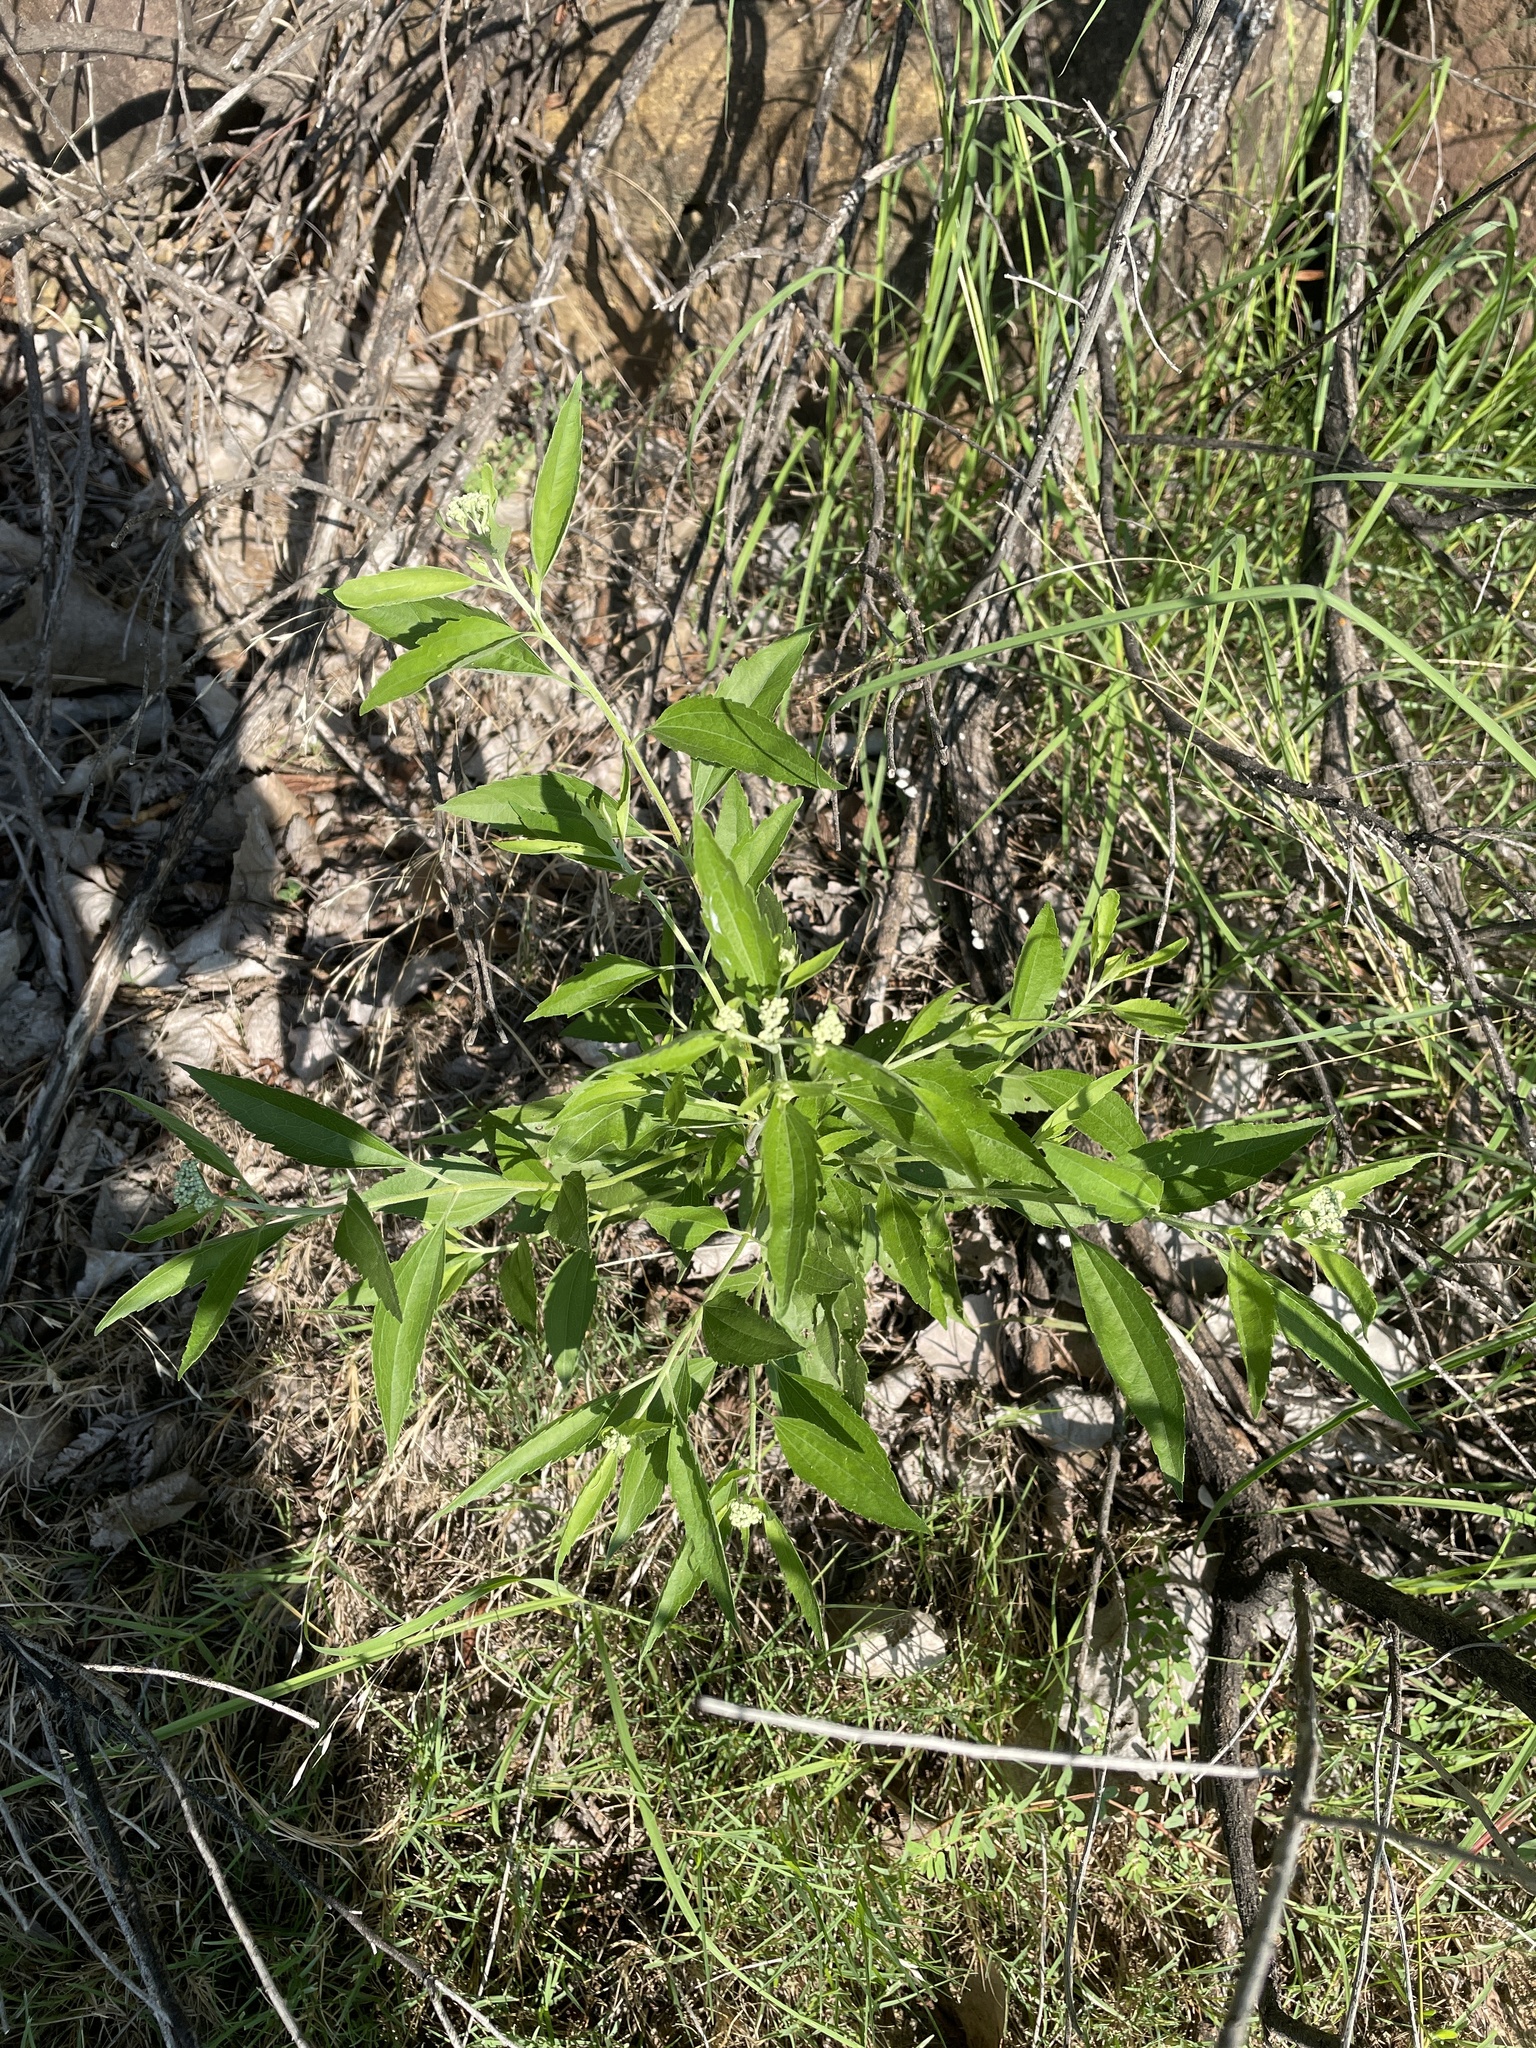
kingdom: Plantae
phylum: Tracheophyta
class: Magnoliopsida
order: Asterales
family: Asteraceae
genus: Eupatorium
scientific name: Eupatorium serotinum
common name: Late boneset
